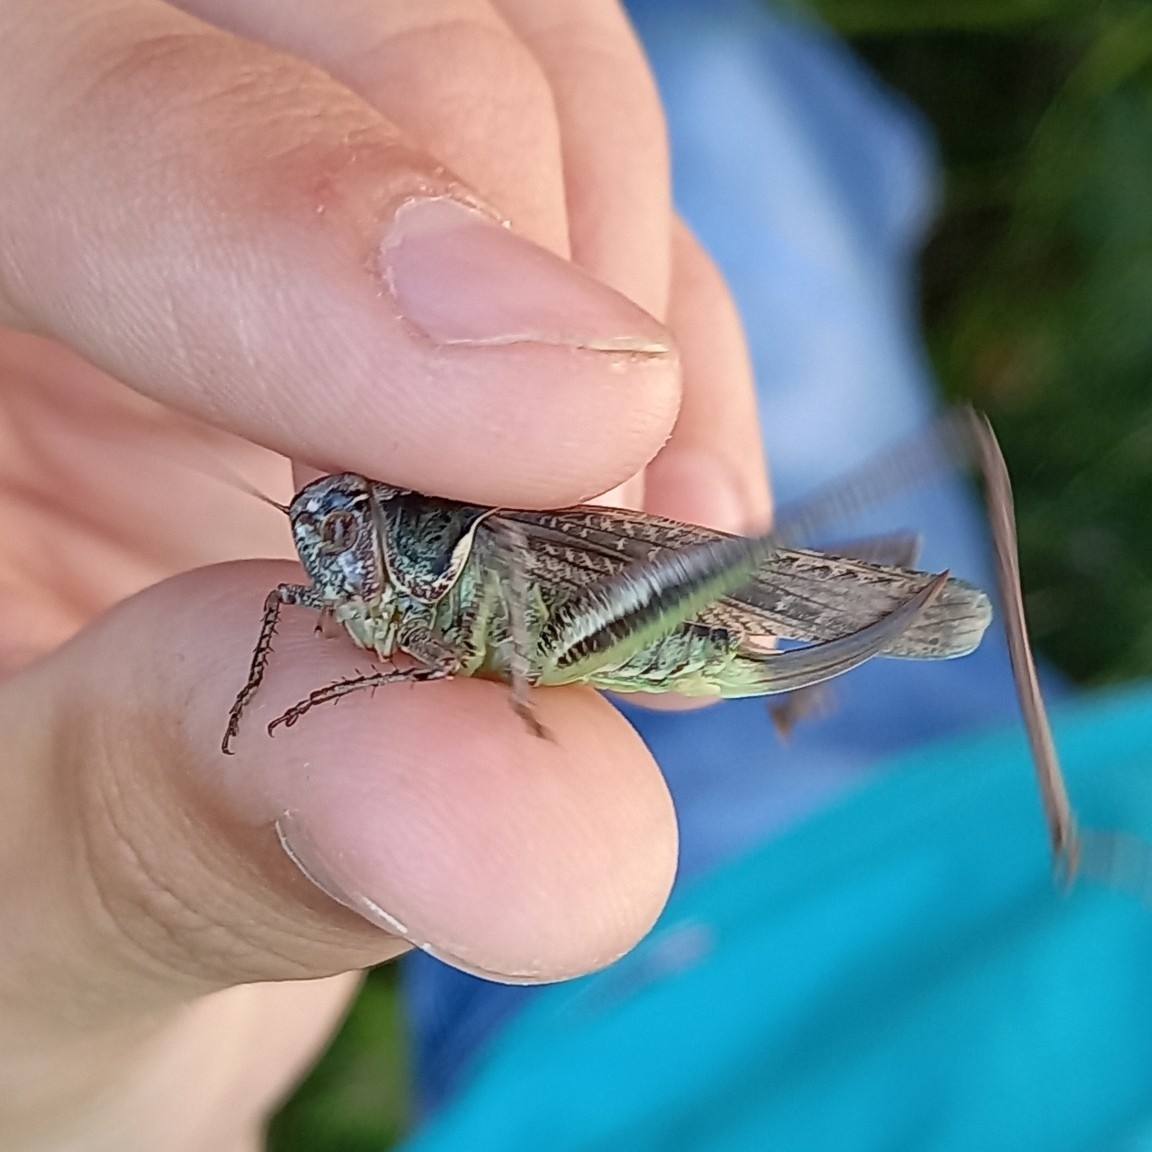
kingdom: Animalia
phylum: Arthropoda
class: Insecta
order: Orthoptera
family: Tettigoniidae
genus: Platycleis
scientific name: Platycleis intermedia
